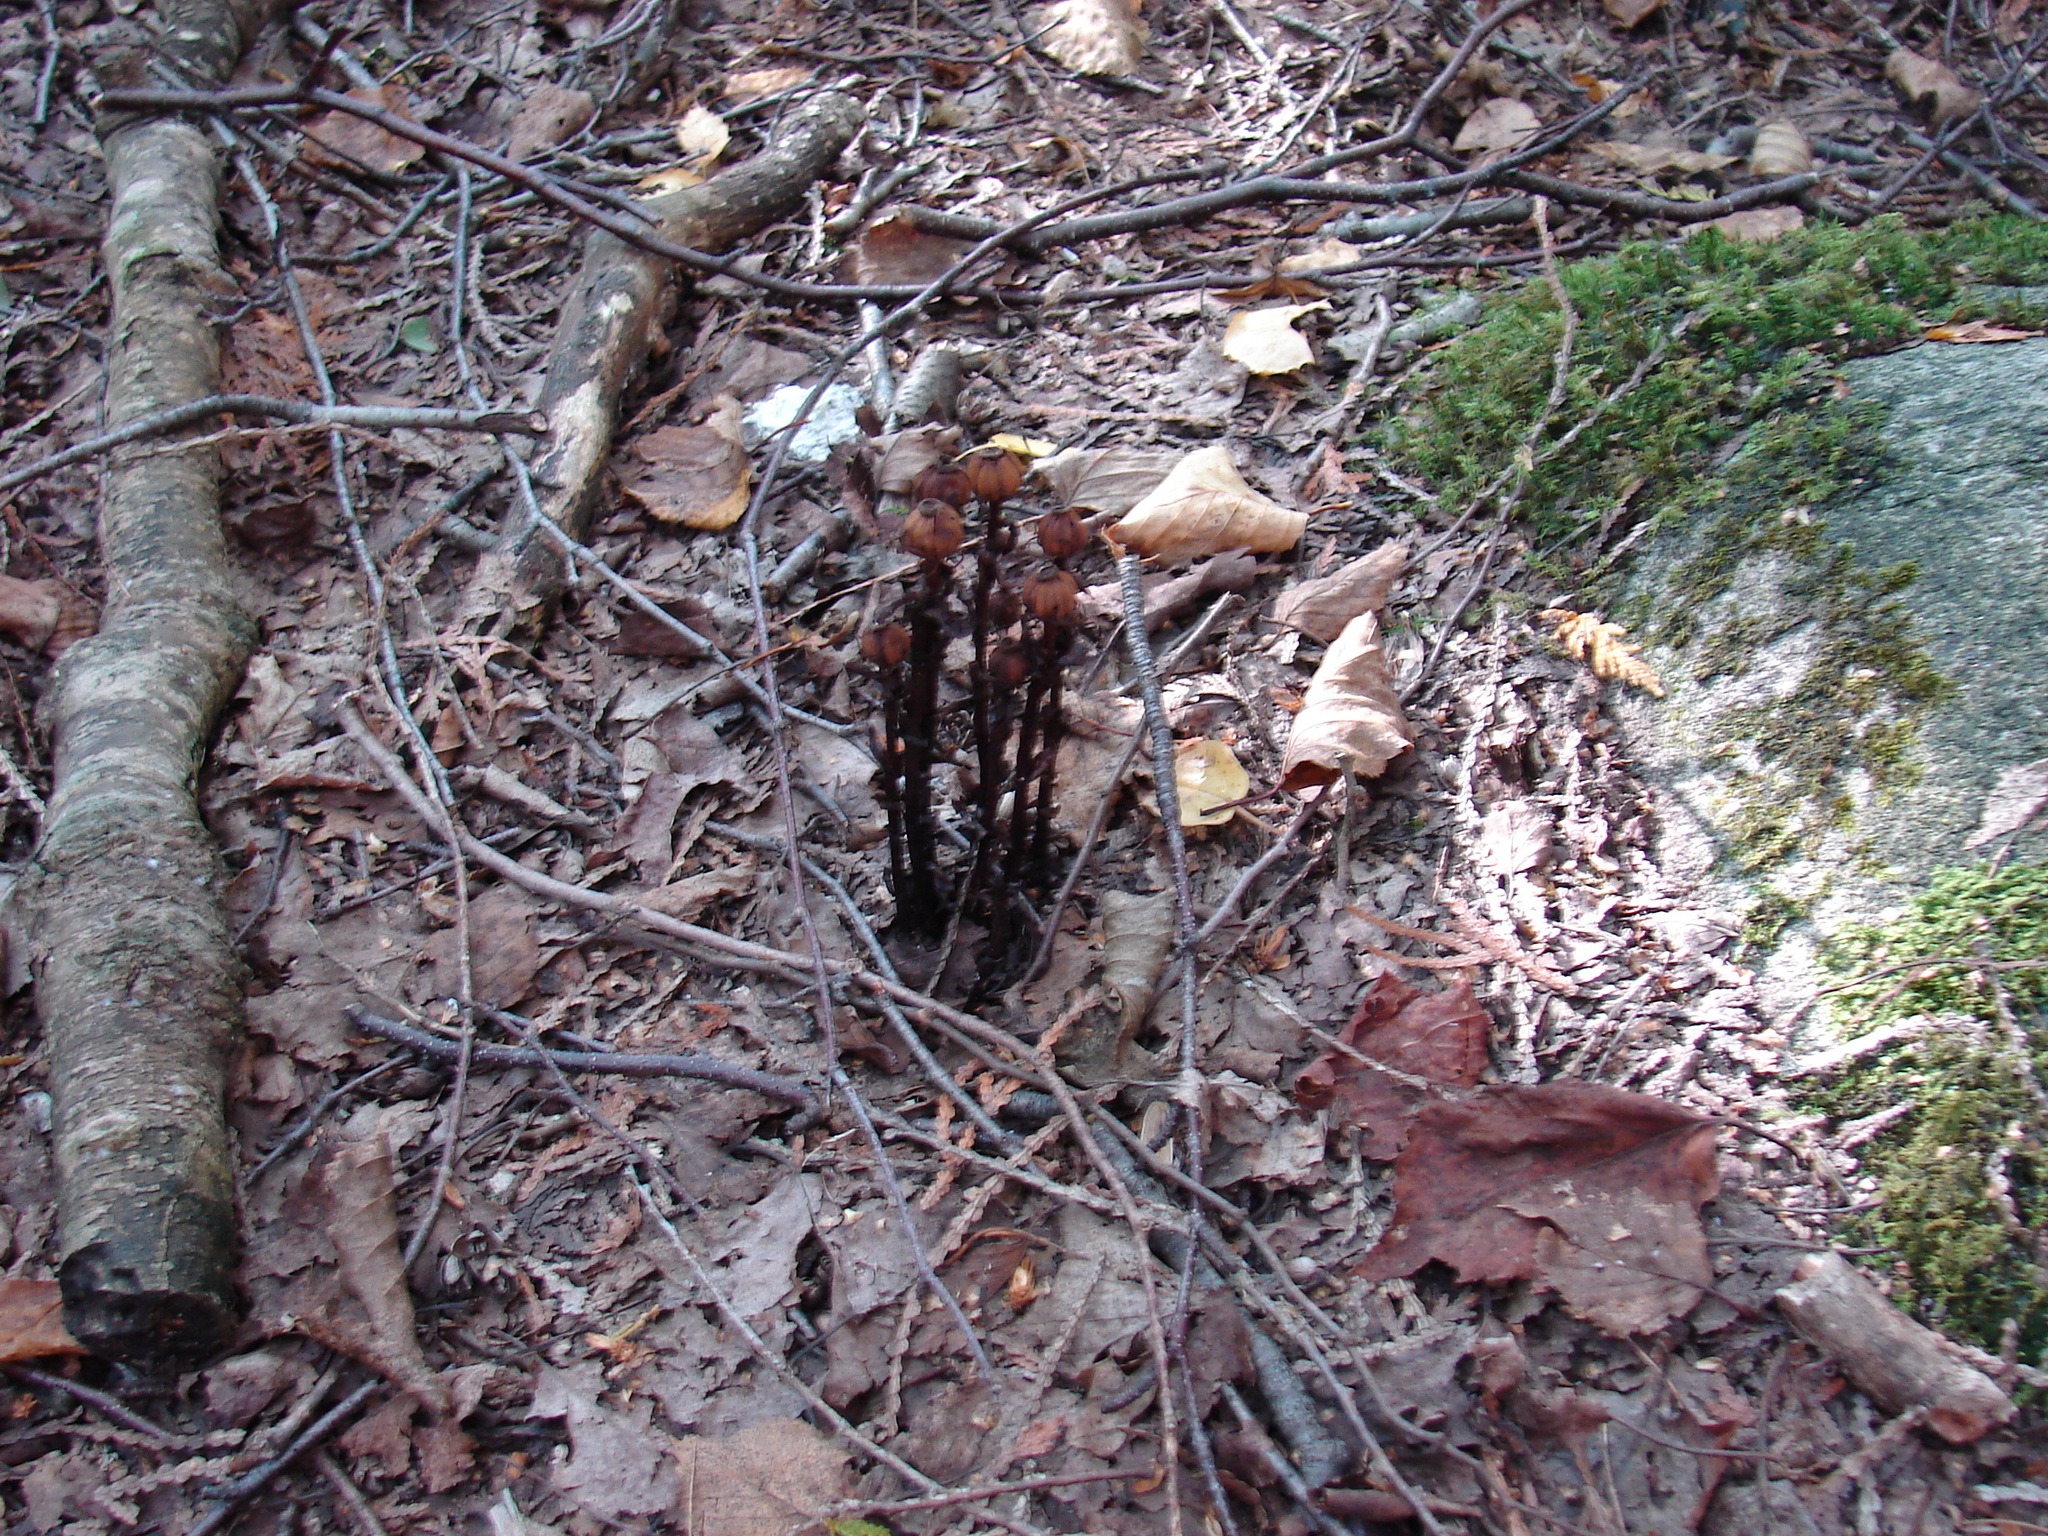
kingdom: Plantae
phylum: Tracheophyta
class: Magnoliopsida
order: Ericales
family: Ericaceae
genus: Monotropa
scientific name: Monotropa uniflora
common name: Convulsion root
